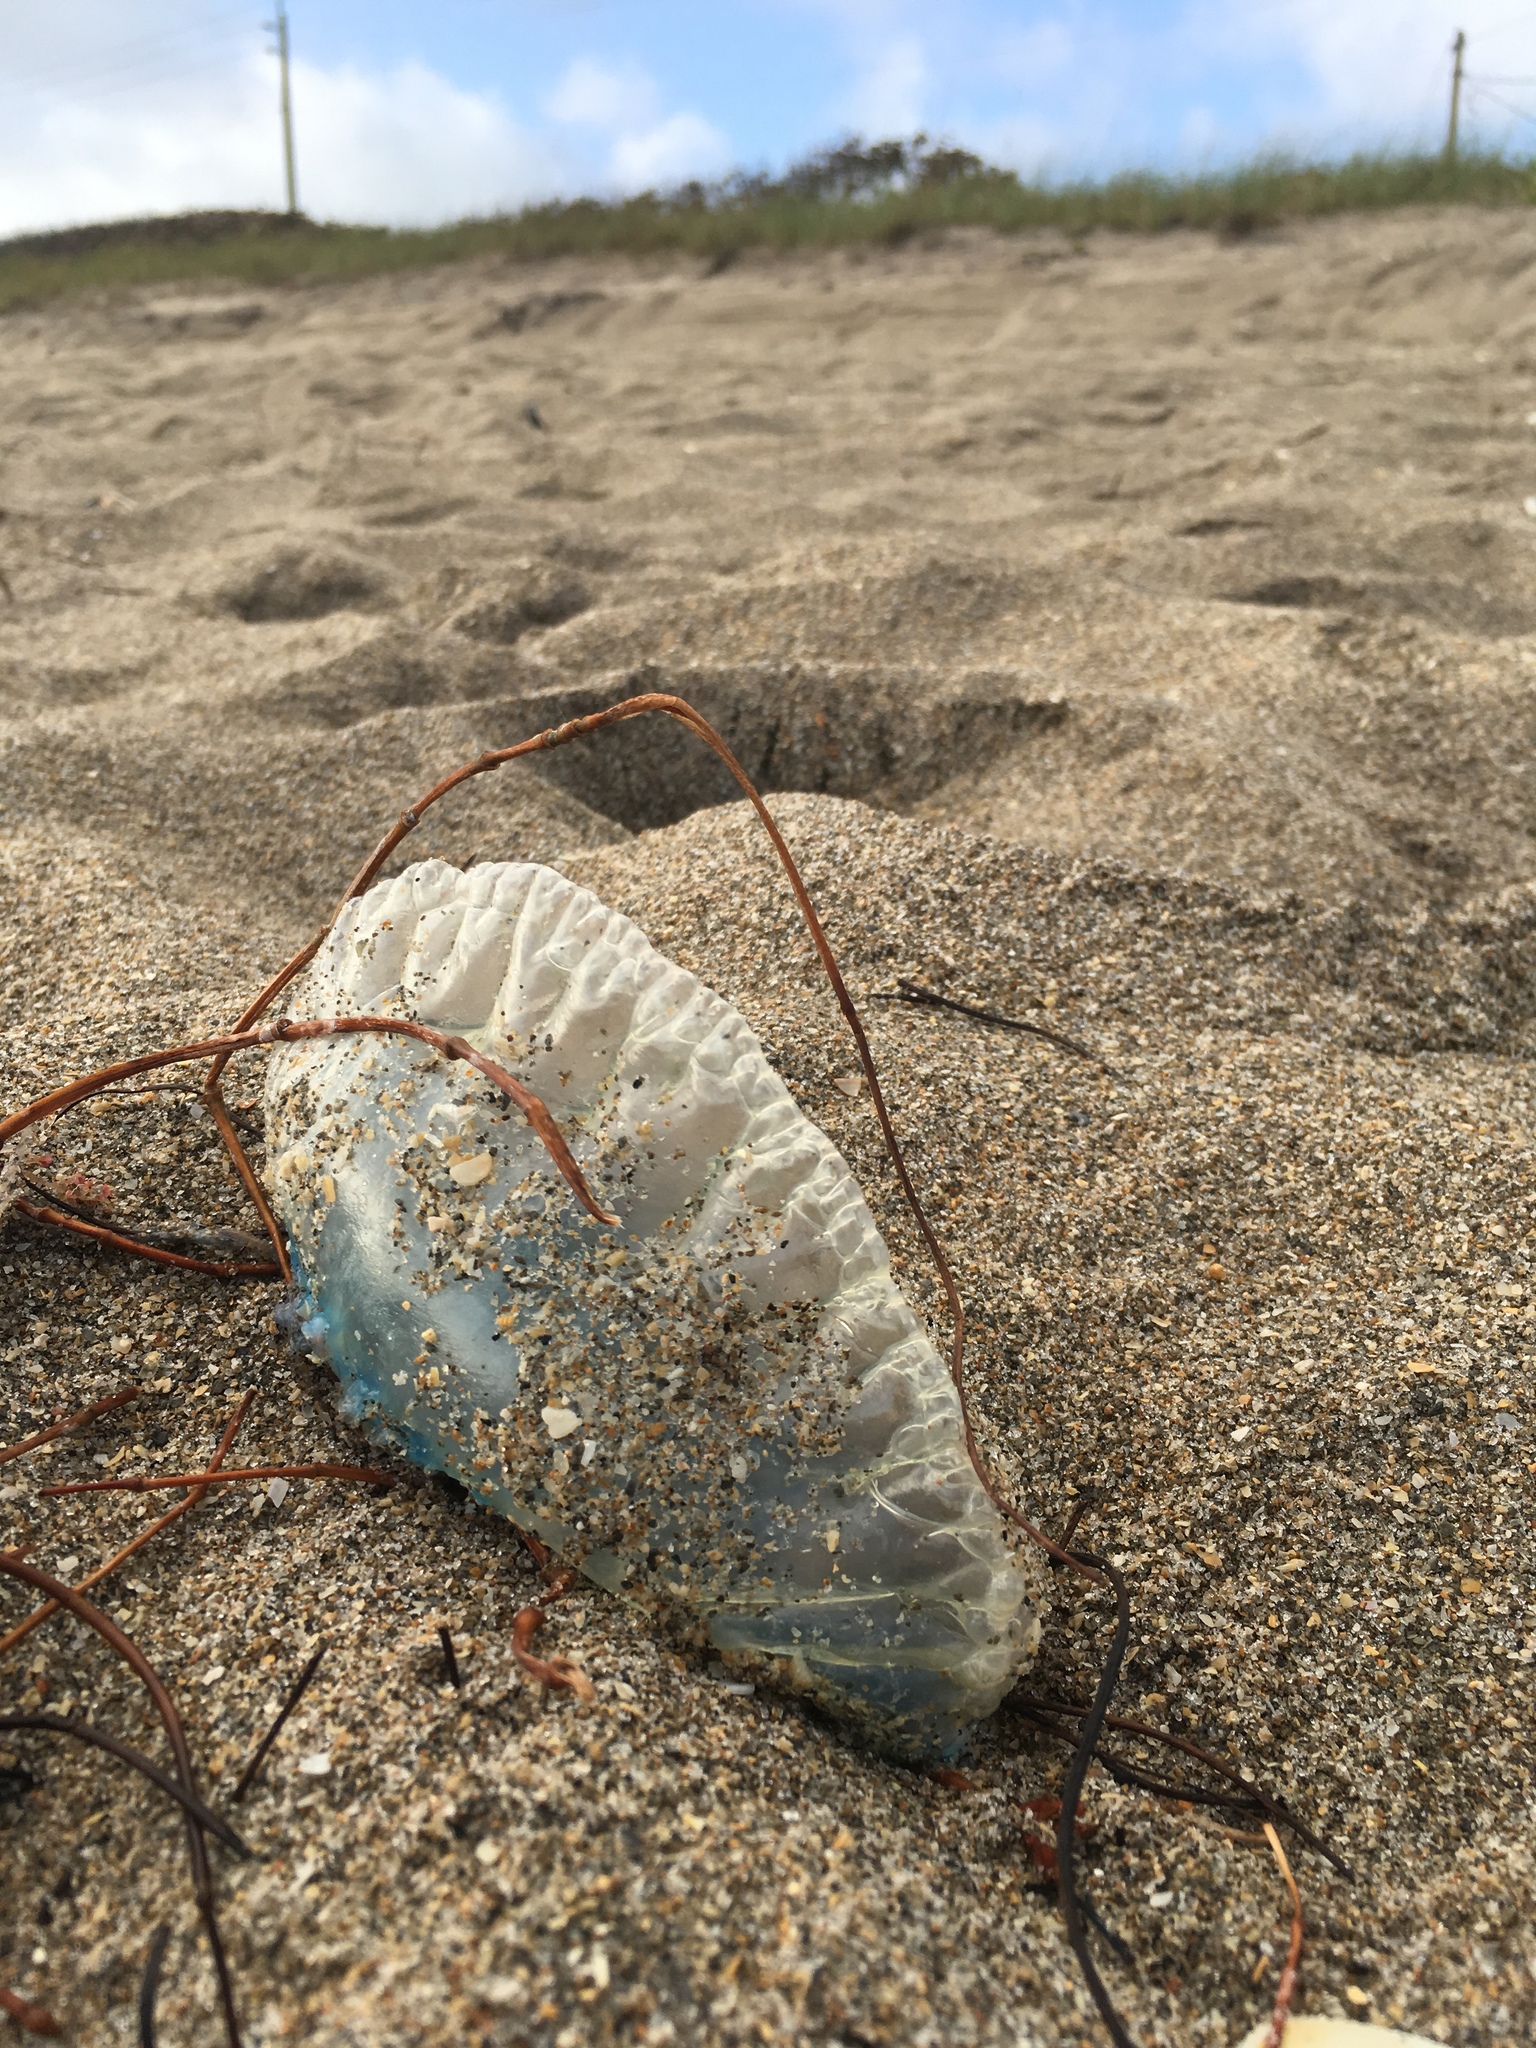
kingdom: Animalia
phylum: Cnidaria
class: Hydrozoa
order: Siphonophorae
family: Physaliidae
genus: Physalia
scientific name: Physalia physalis
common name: Portuguese man-of-war
